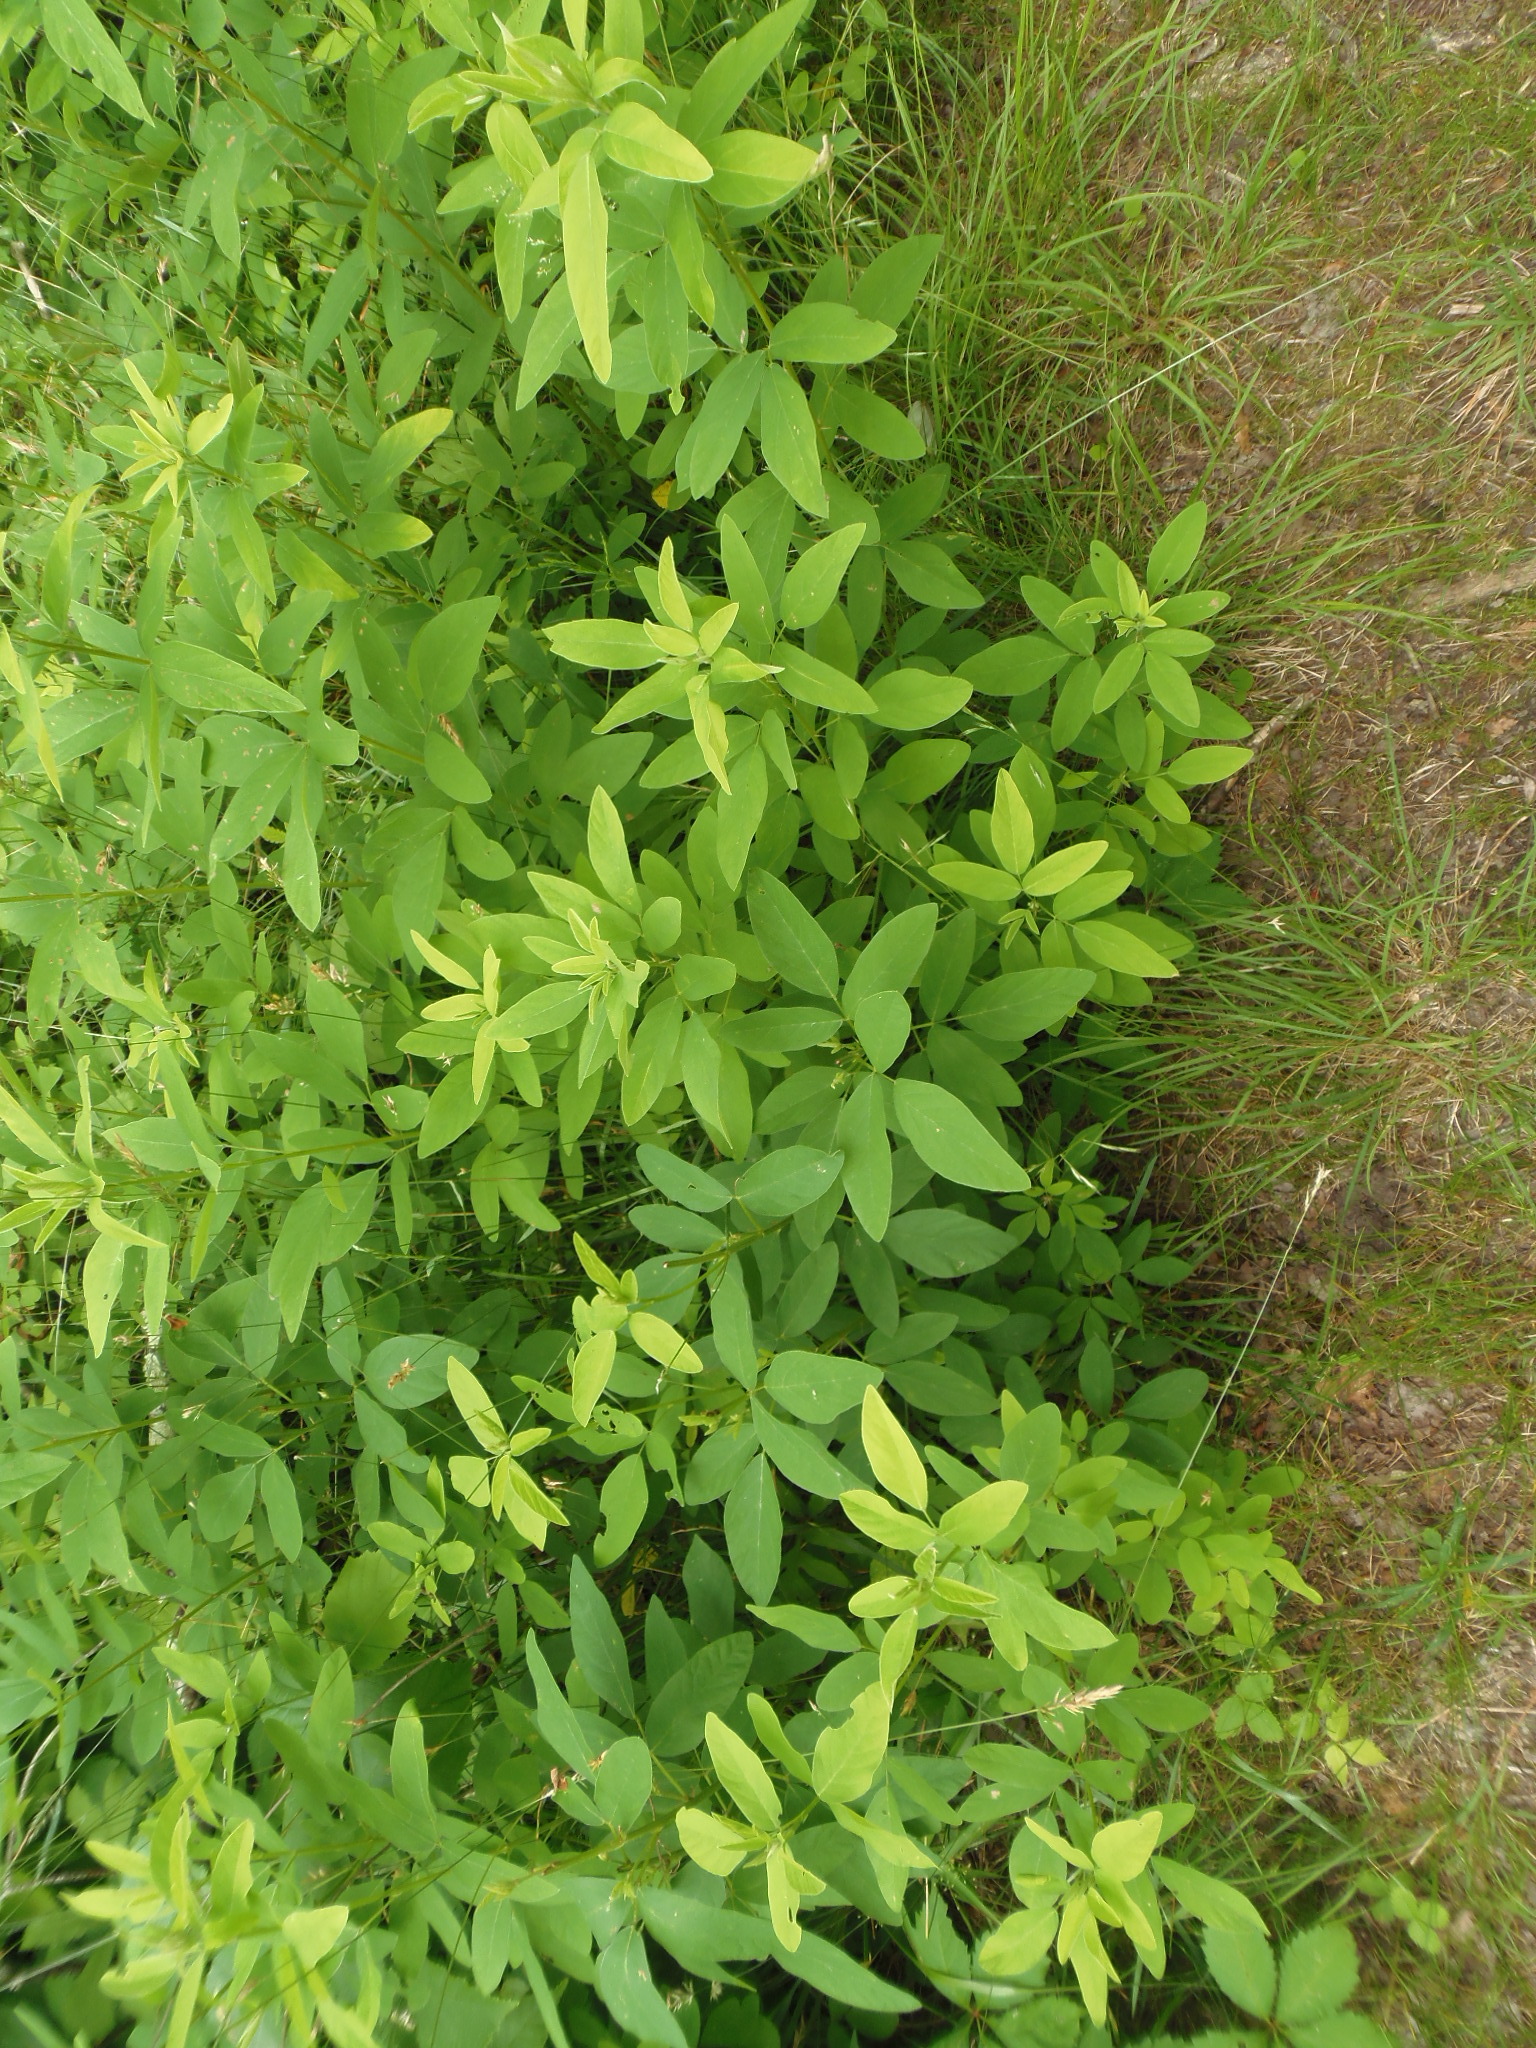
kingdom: Plantae
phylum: Tracheophyta
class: Magnoliopsida
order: Fabales
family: Fabaceae
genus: Desmodium
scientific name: Desmodium canadense
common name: Canada tick-trefoil
